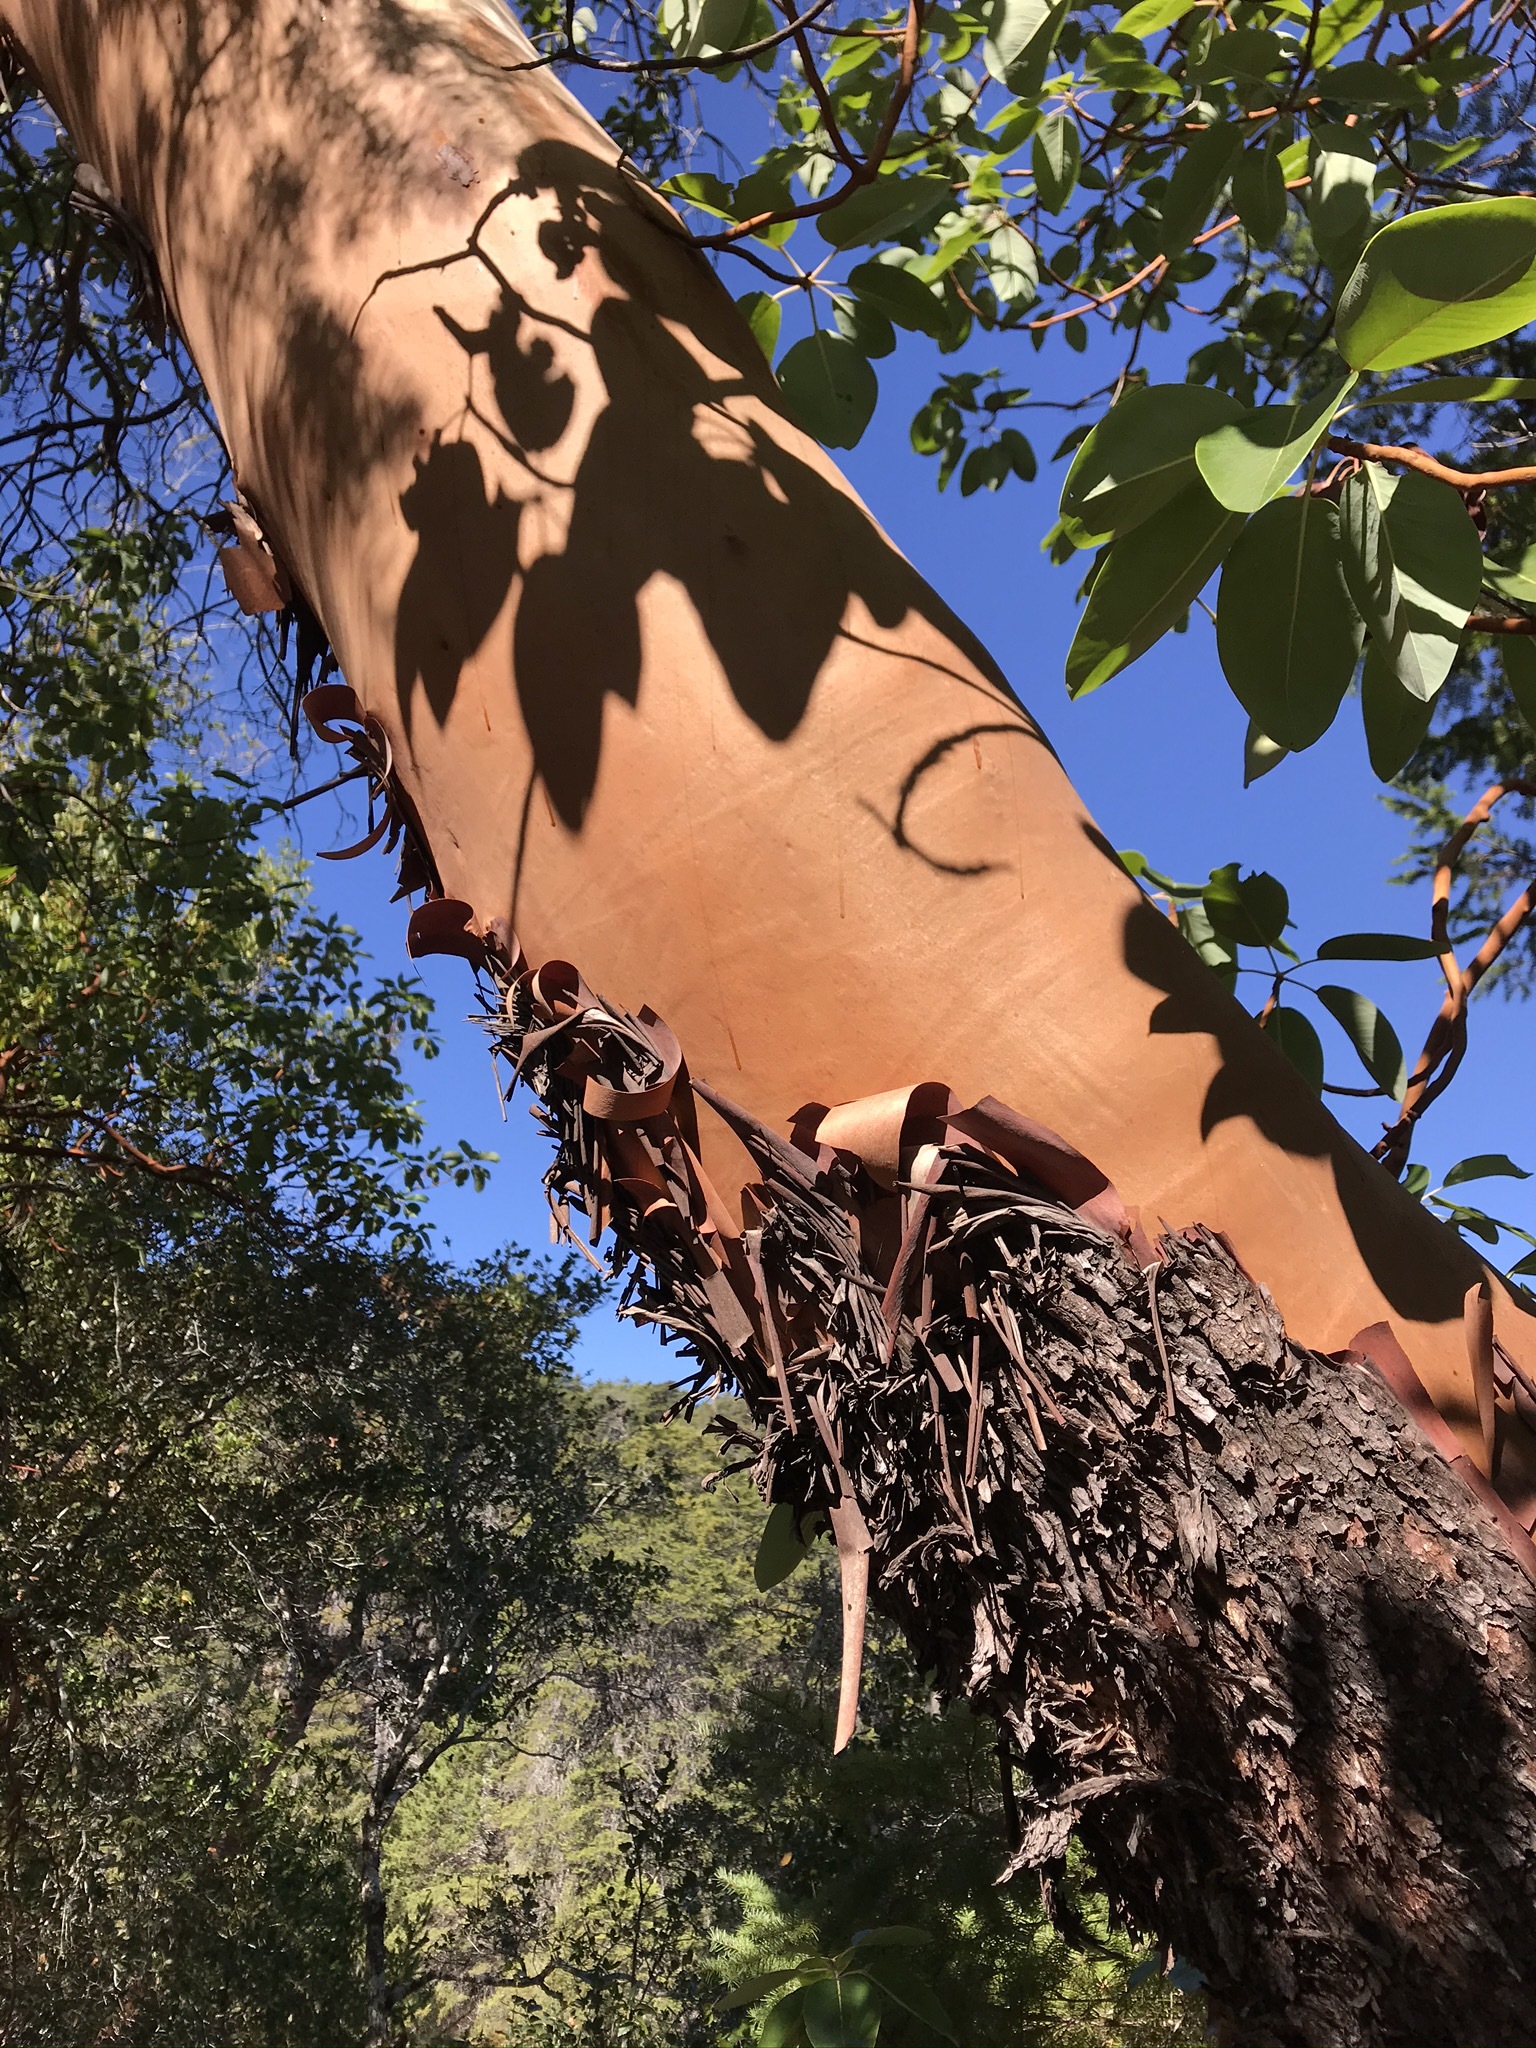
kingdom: Plantae
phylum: Tracheophyta
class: Magnoliopsida
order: Ericales
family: Ericaceae
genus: Arbutus
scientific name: Arbutus menziesii
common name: Pacific madrone
